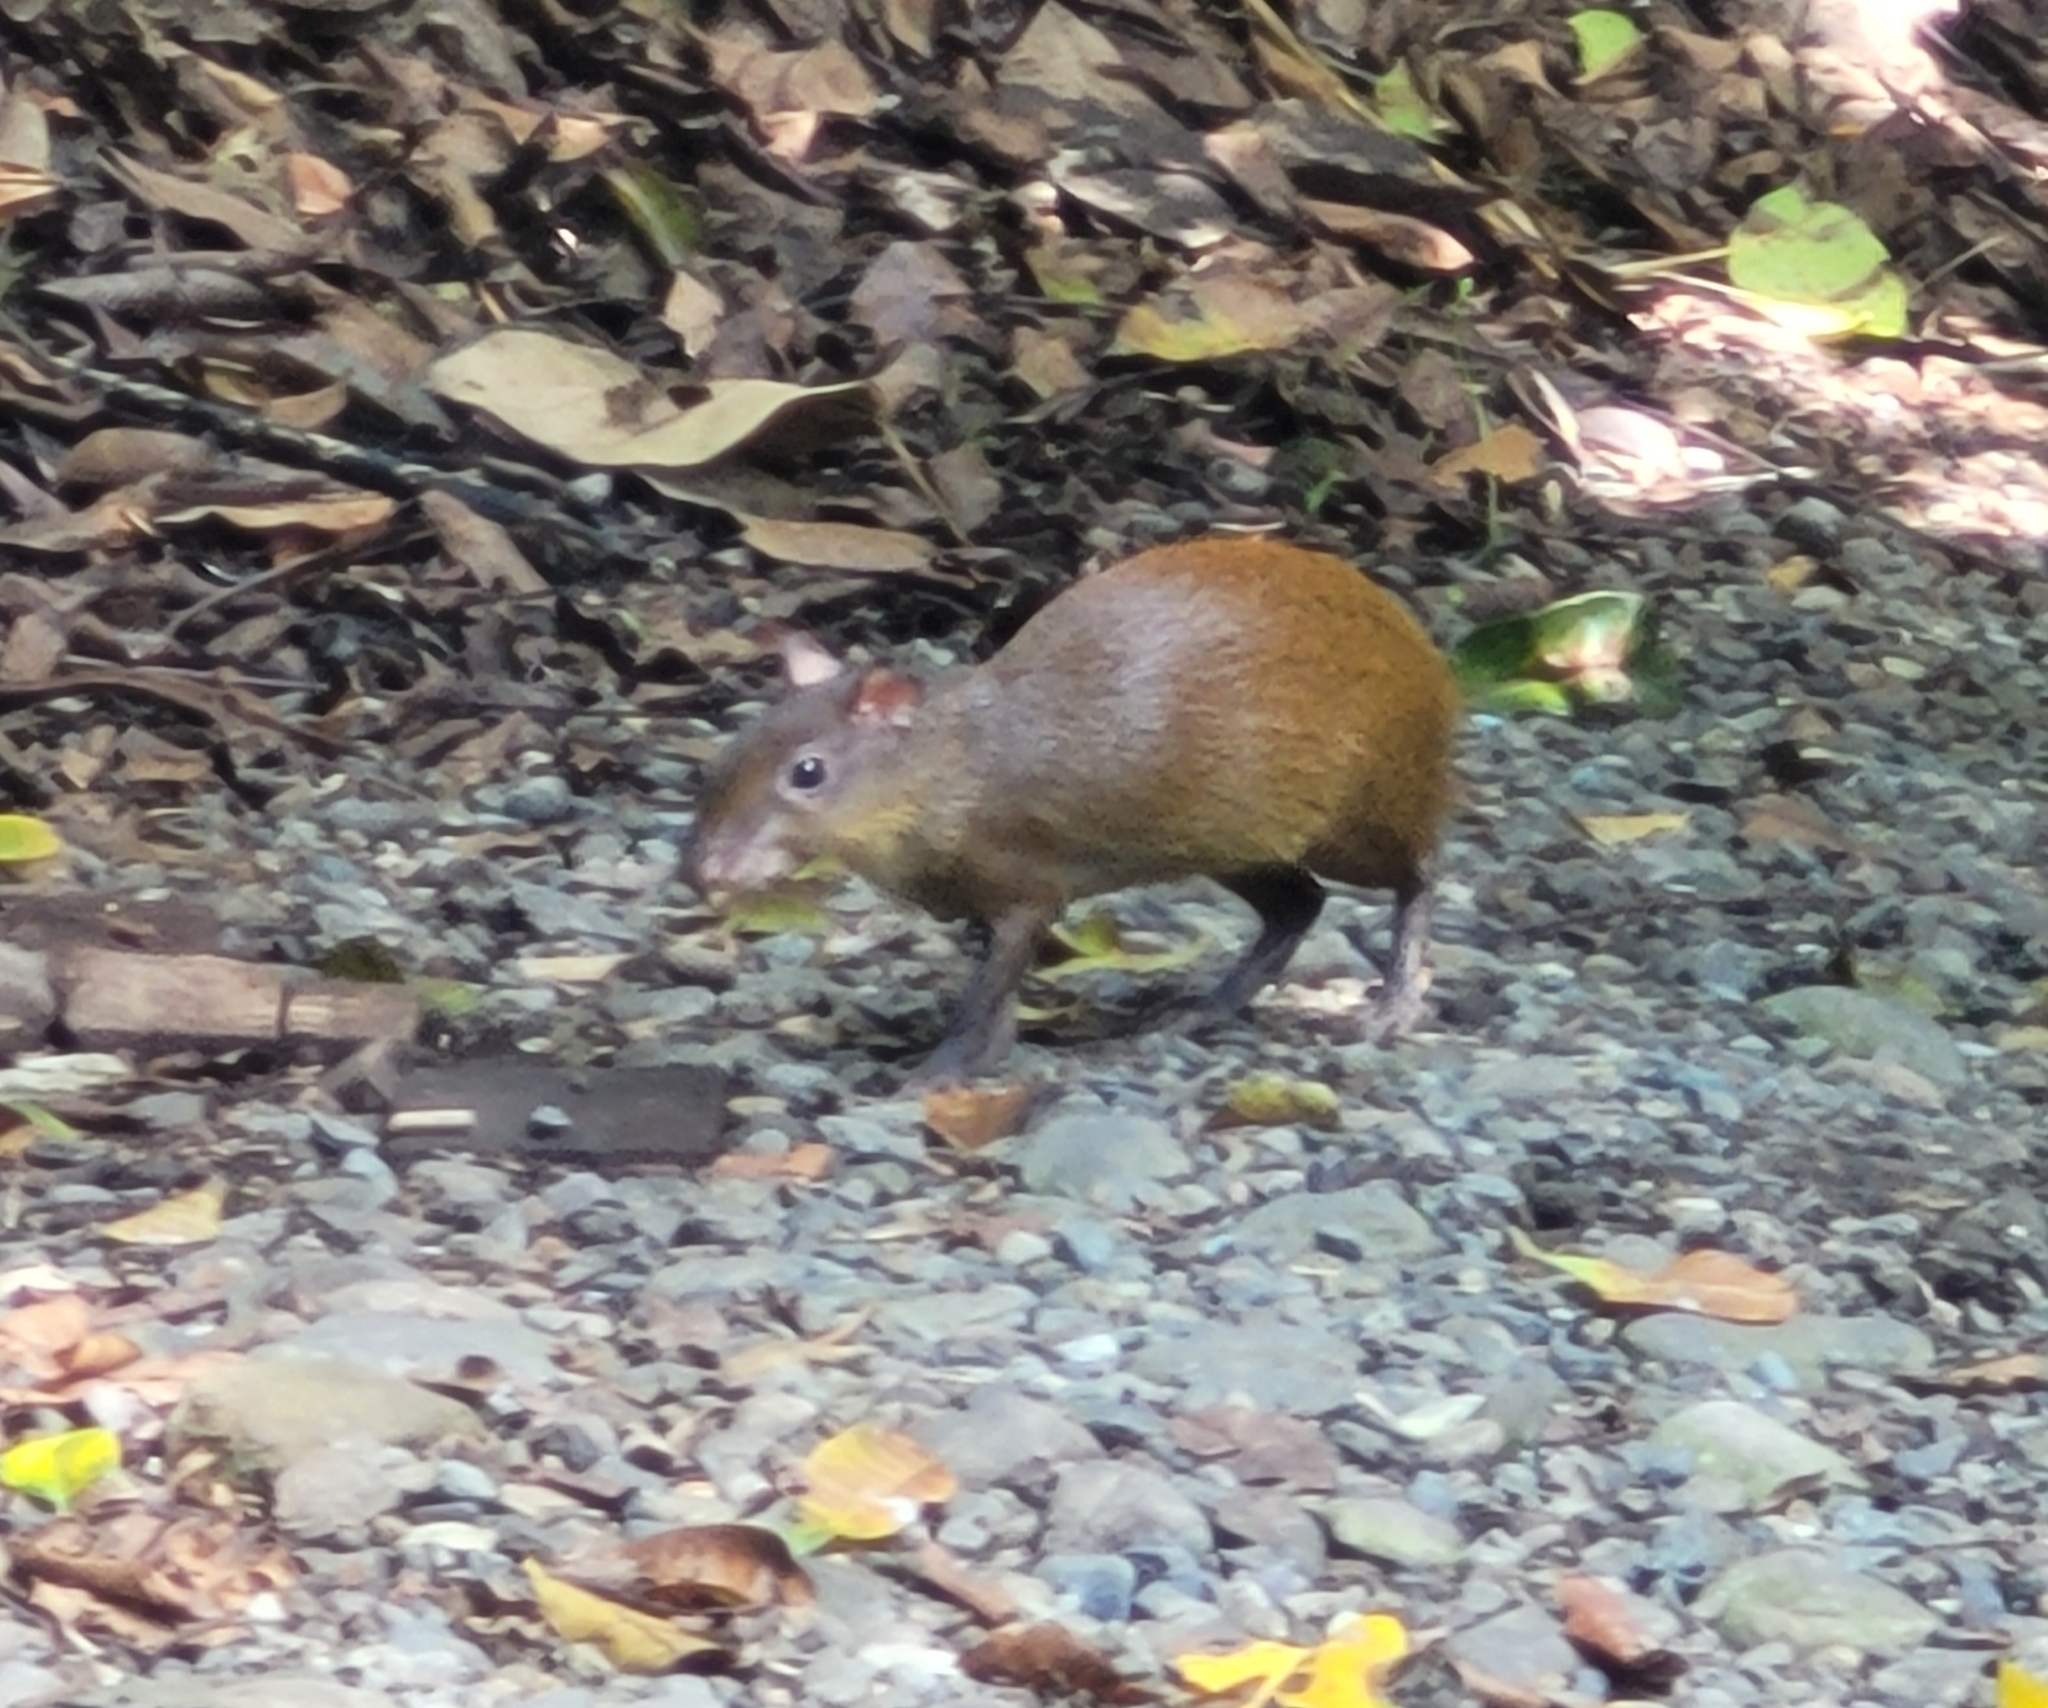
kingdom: Animalia
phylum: Chordata
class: Mammalia
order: Rodentia
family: Dasyproctidae
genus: Dasyprocta
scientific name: Dasyprocta punctata
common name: Central american agouti
